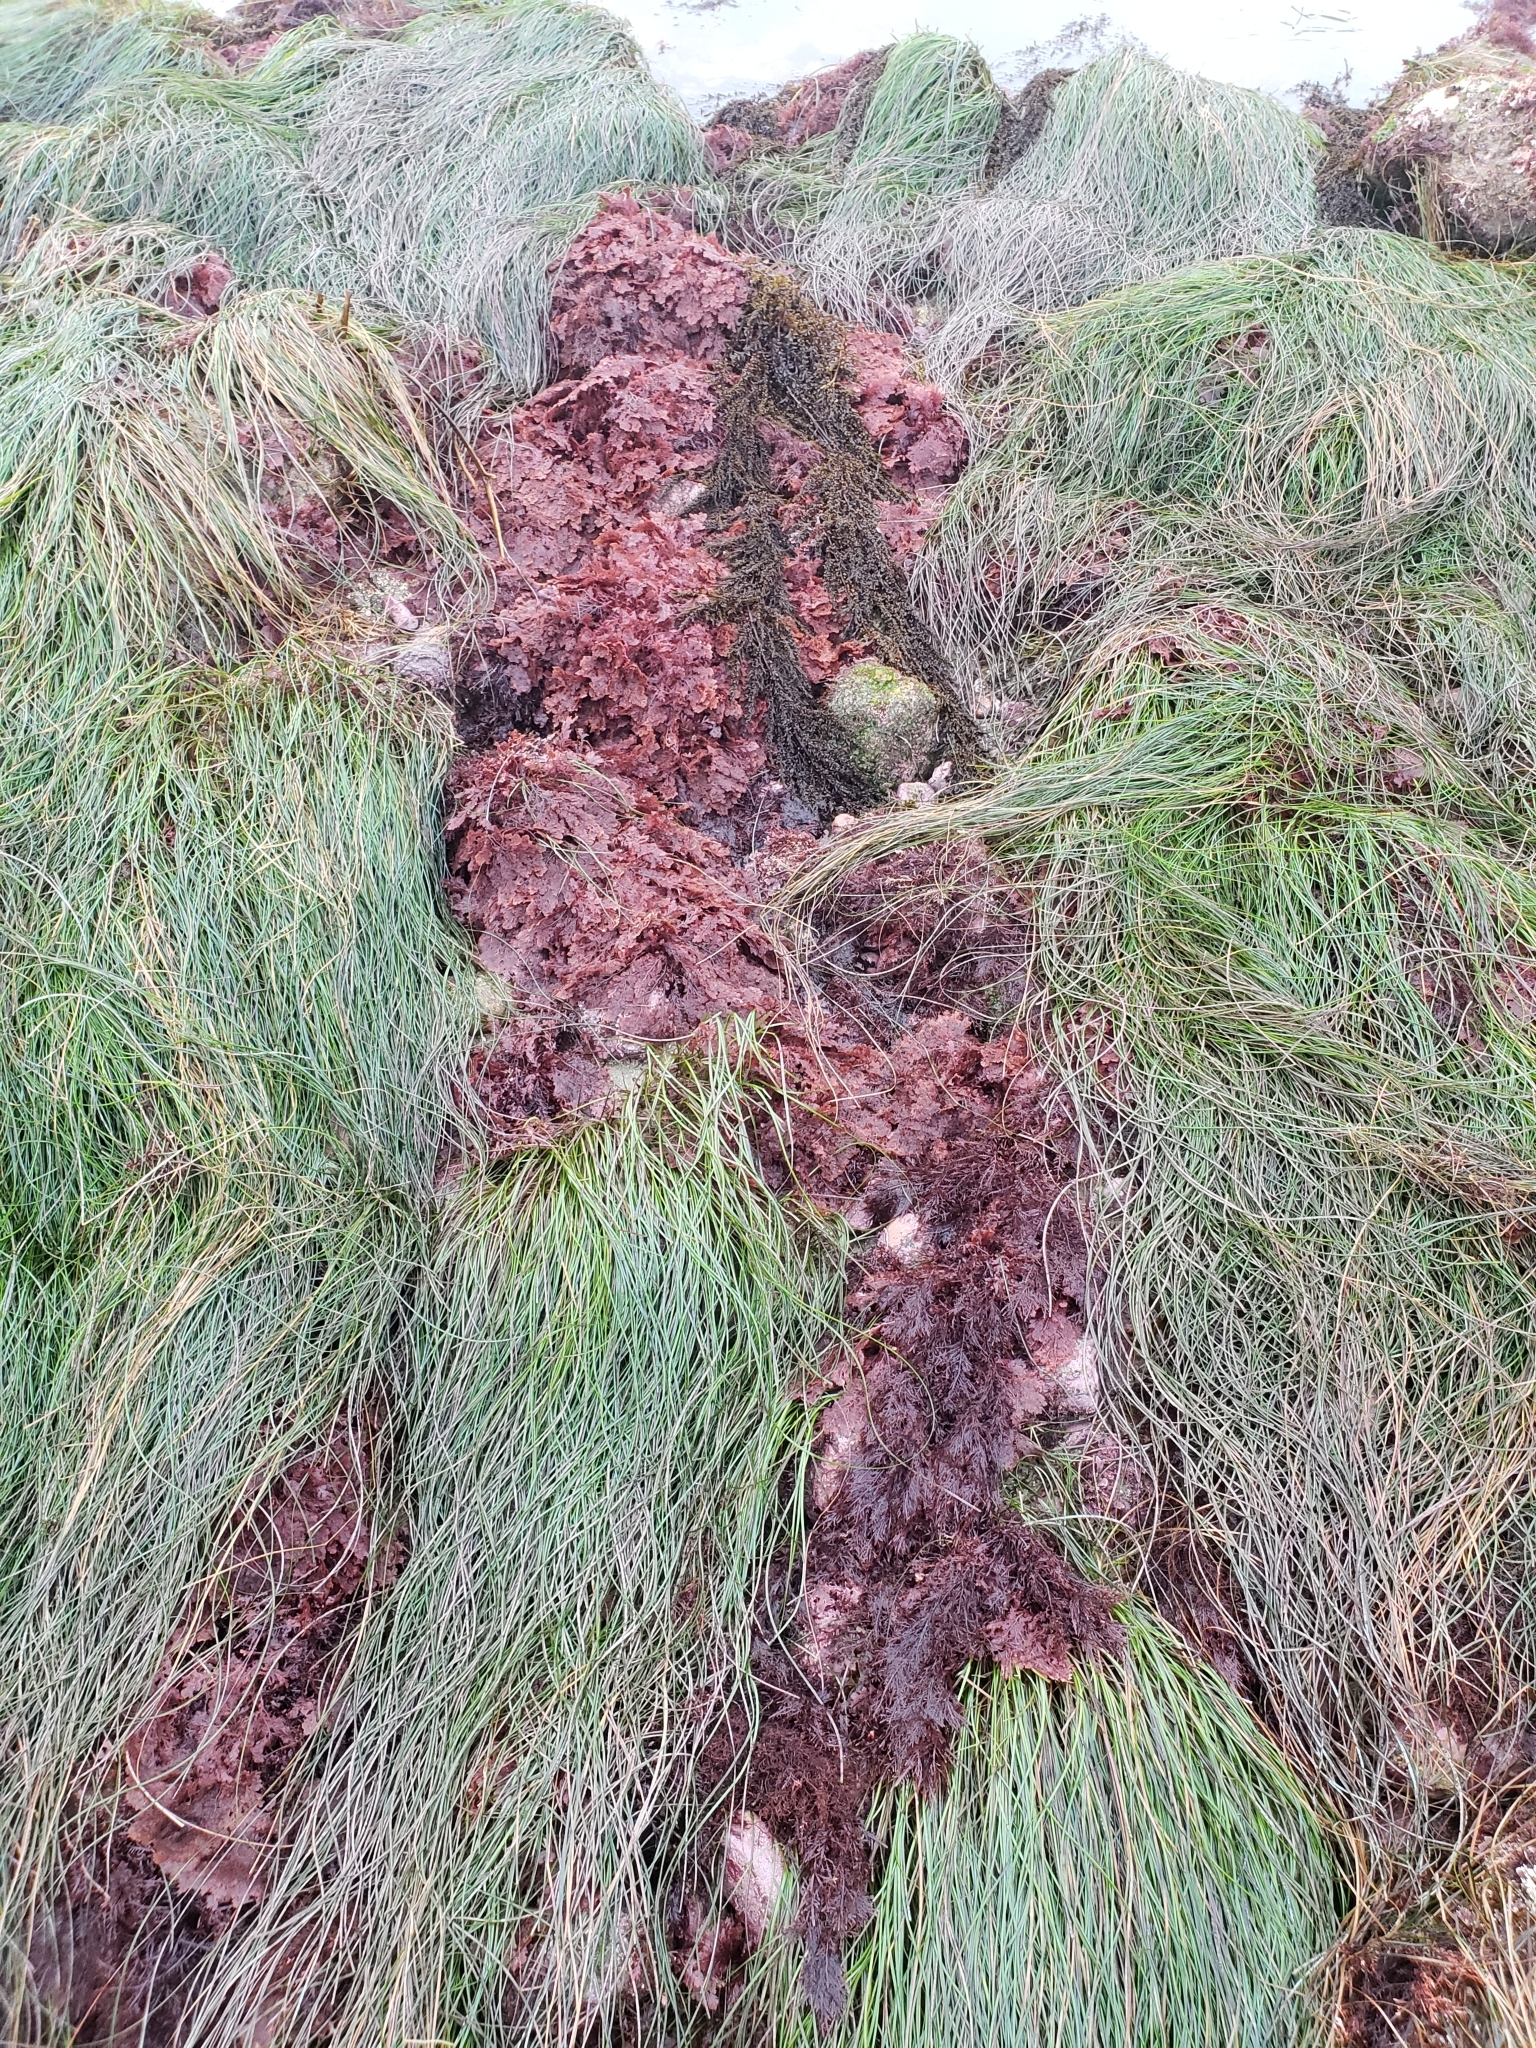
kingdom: Plantae
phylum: Rhodophyta
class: Florideophyceae
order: Plocamiales
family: Plocamiaceae
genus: Plocamium
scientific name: Plocamium cartilagineum
